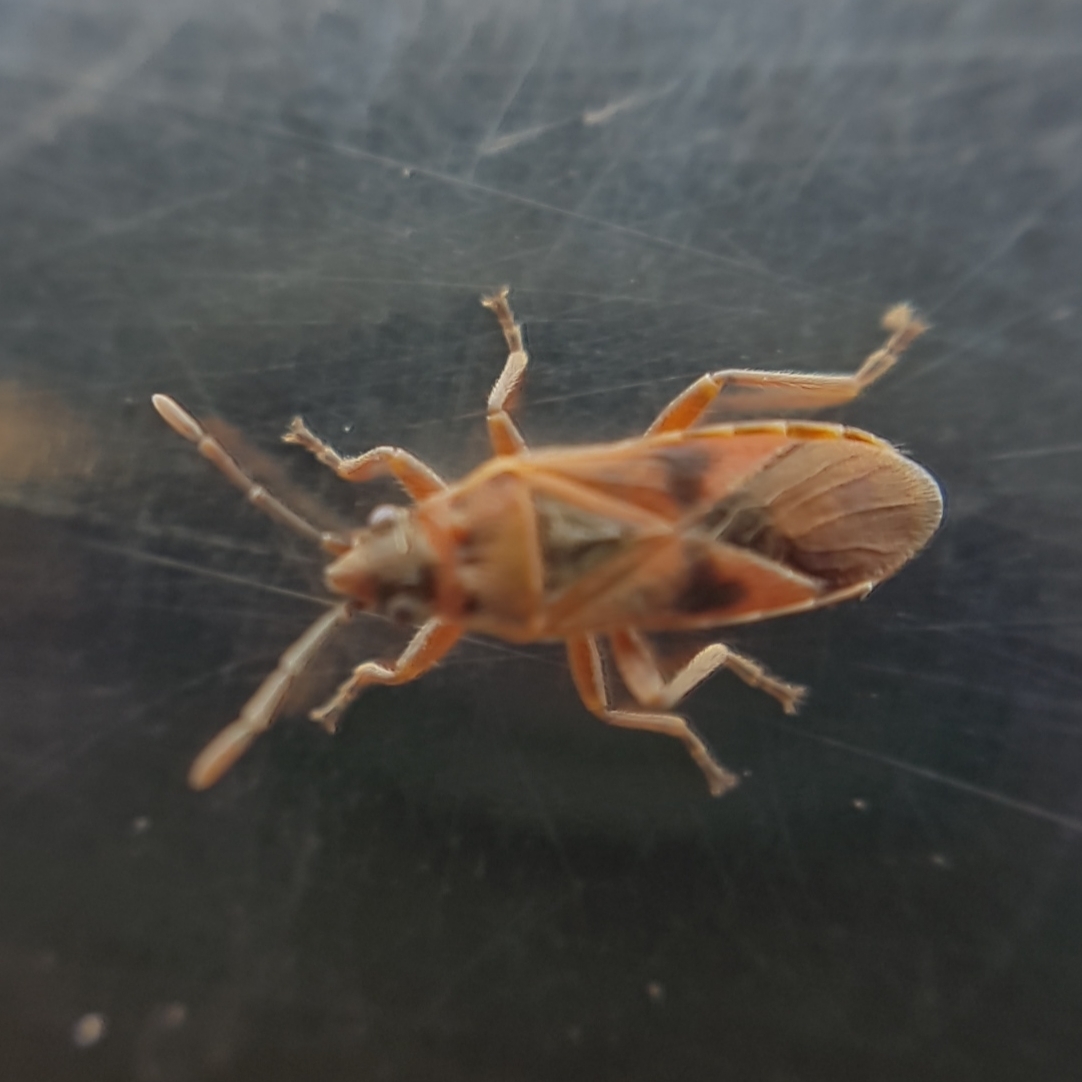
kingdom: Animalia
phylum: Arthropoda
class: Insecta
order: Hemiptera
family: Lygaeidae
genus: Arocatus
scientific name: Arocatus roeselii
